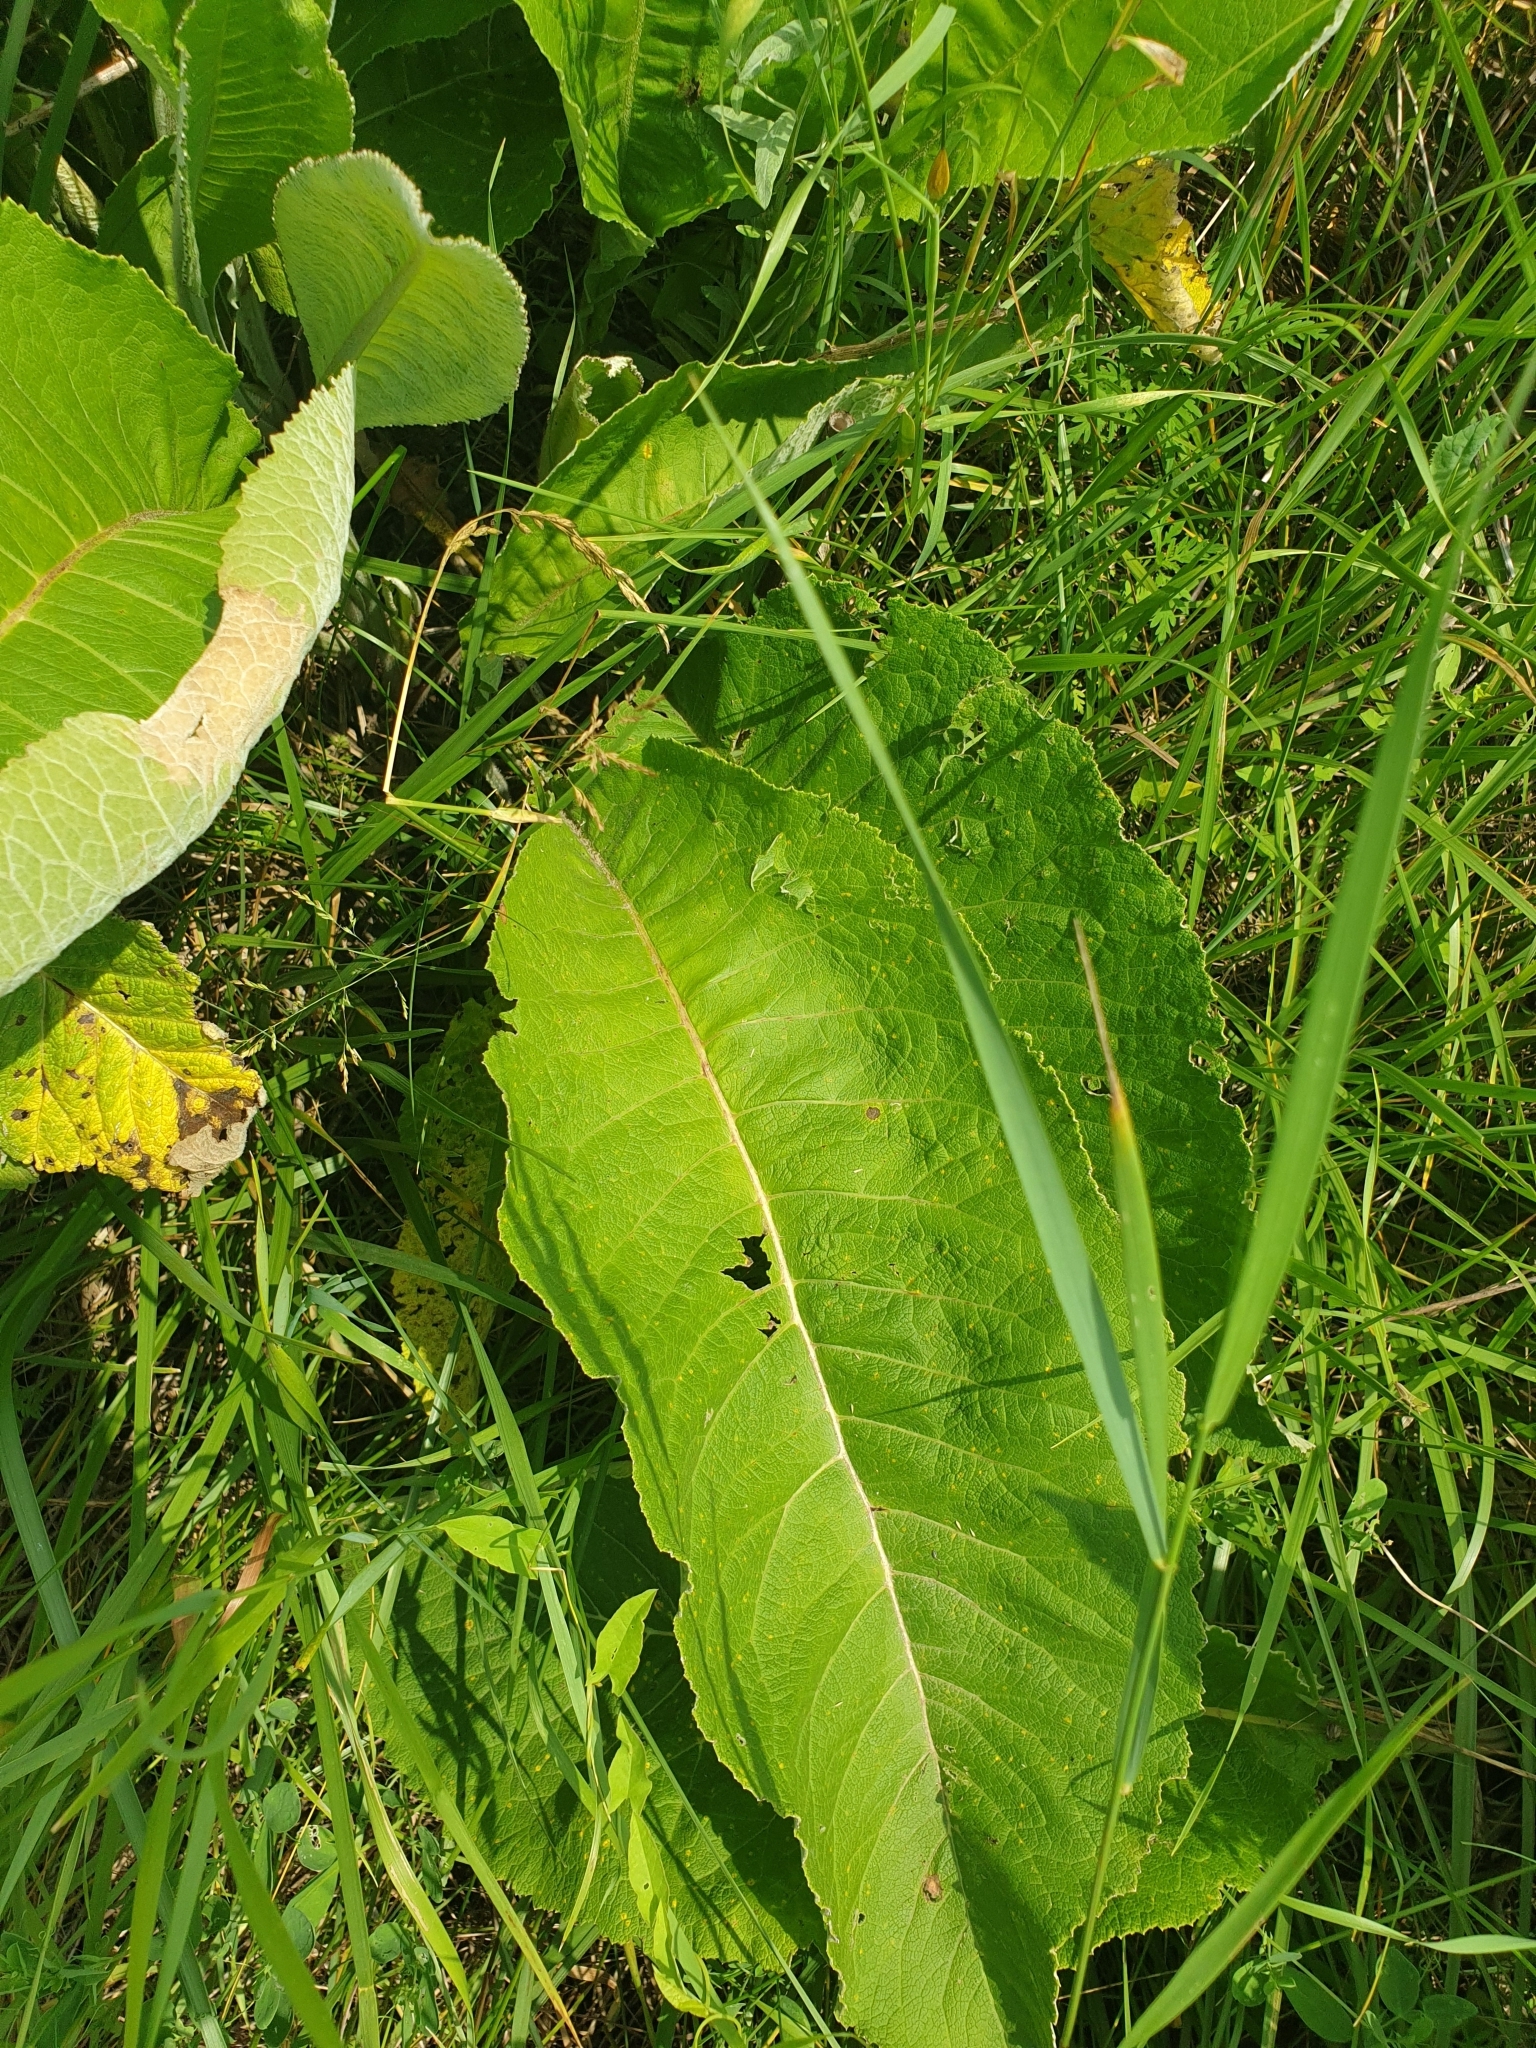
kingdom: Plantae
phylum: Tracheophyta
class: Magnoliopsida
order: Asterales
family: Asteraceae
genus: Inula
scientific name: Inula helenium
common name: Elecampane
